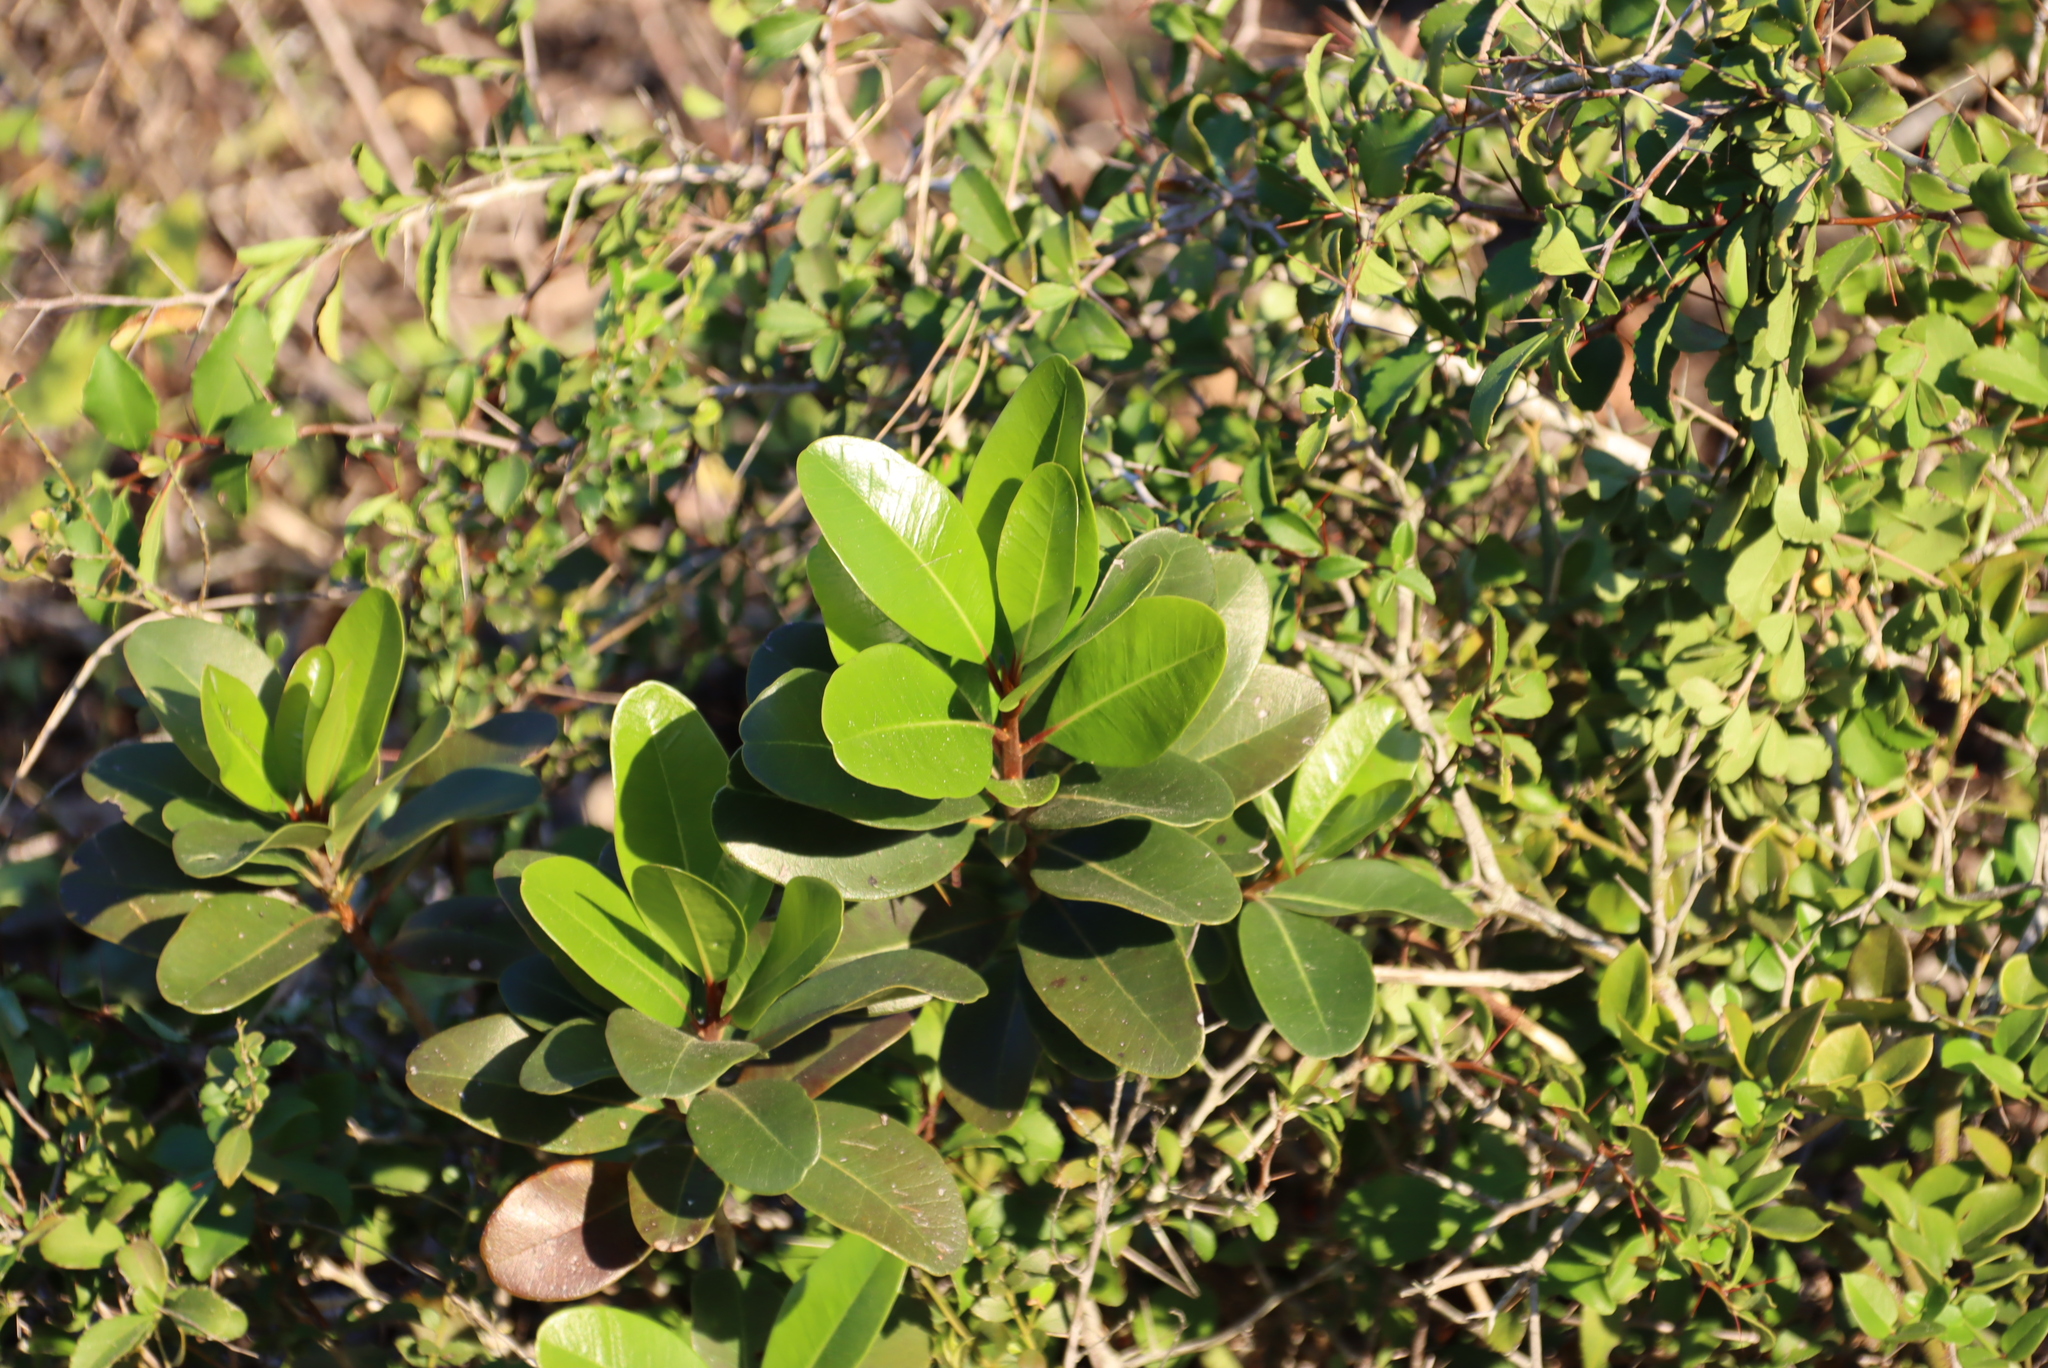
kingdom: Plantae
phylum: Tracheophyta
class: Magnoliopsida
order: Metteniusales
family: Metteniusaceae
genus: Apodytes
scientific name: Apodytes dimidiata
